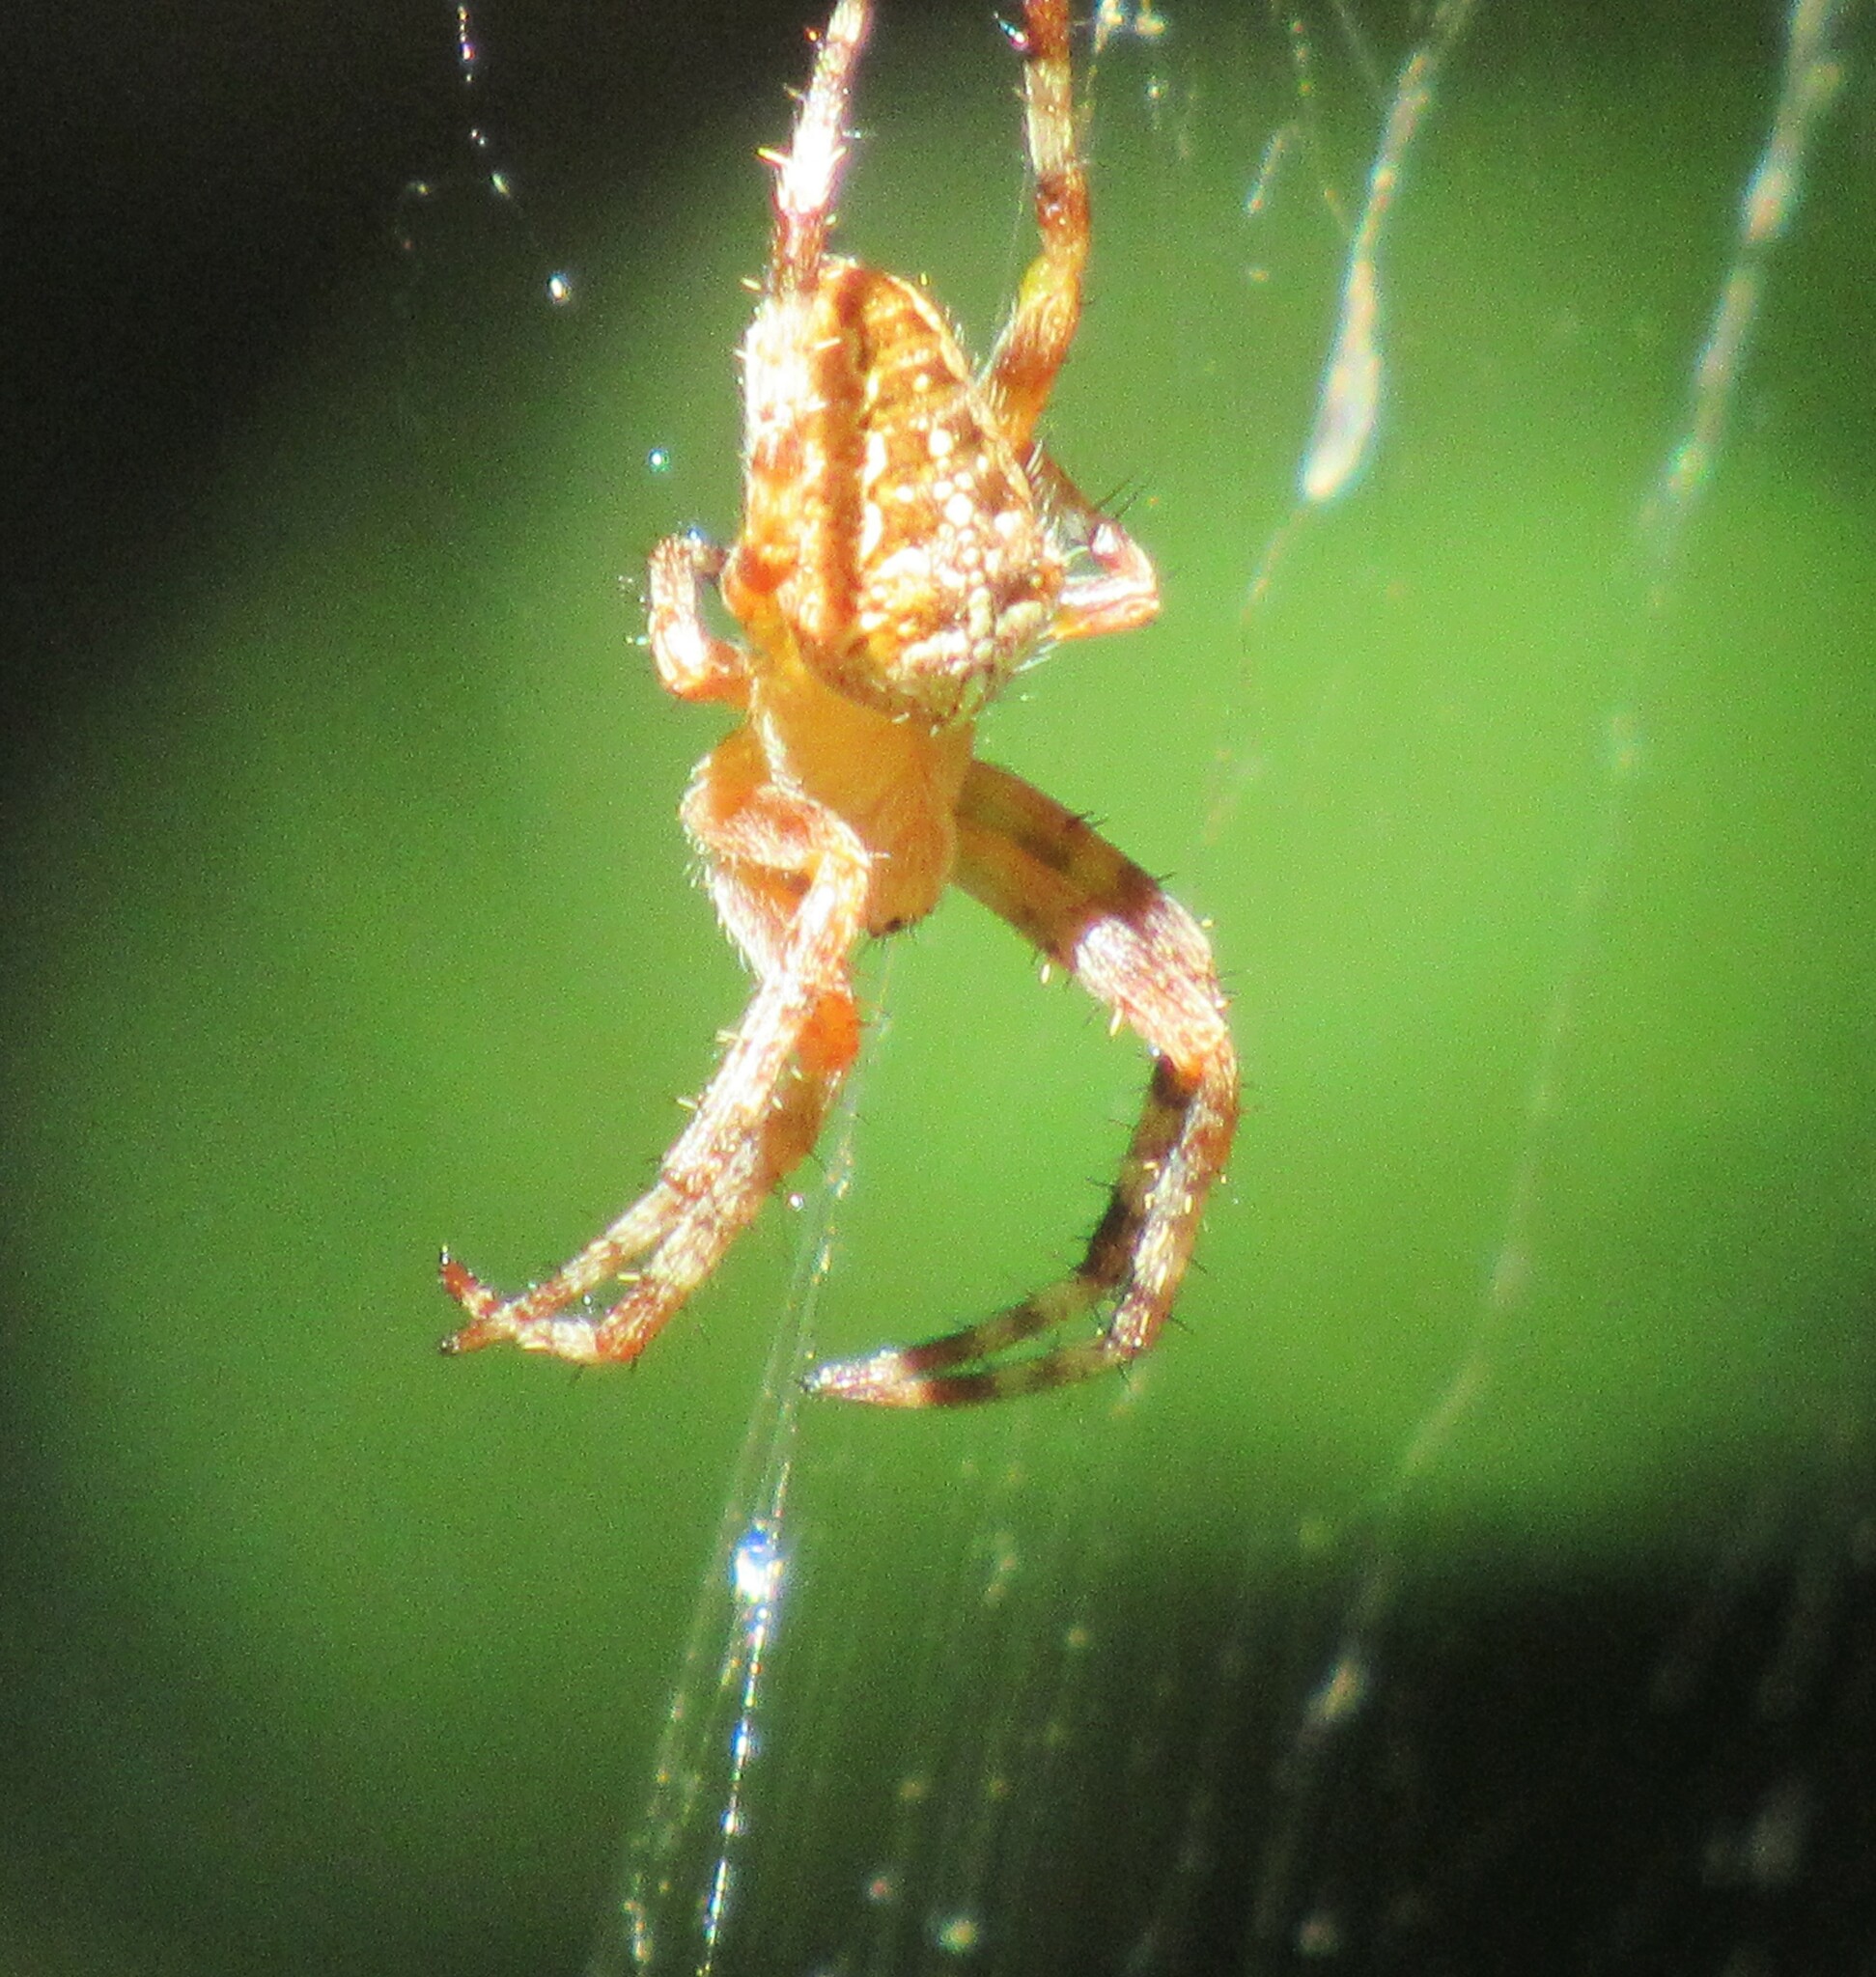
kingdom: Animalia
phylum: Arthropoda
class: Arachnida
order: Araneae
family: Araneidae
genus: Araneus
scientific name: Araneus diadematus
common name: Cross orbweaver
